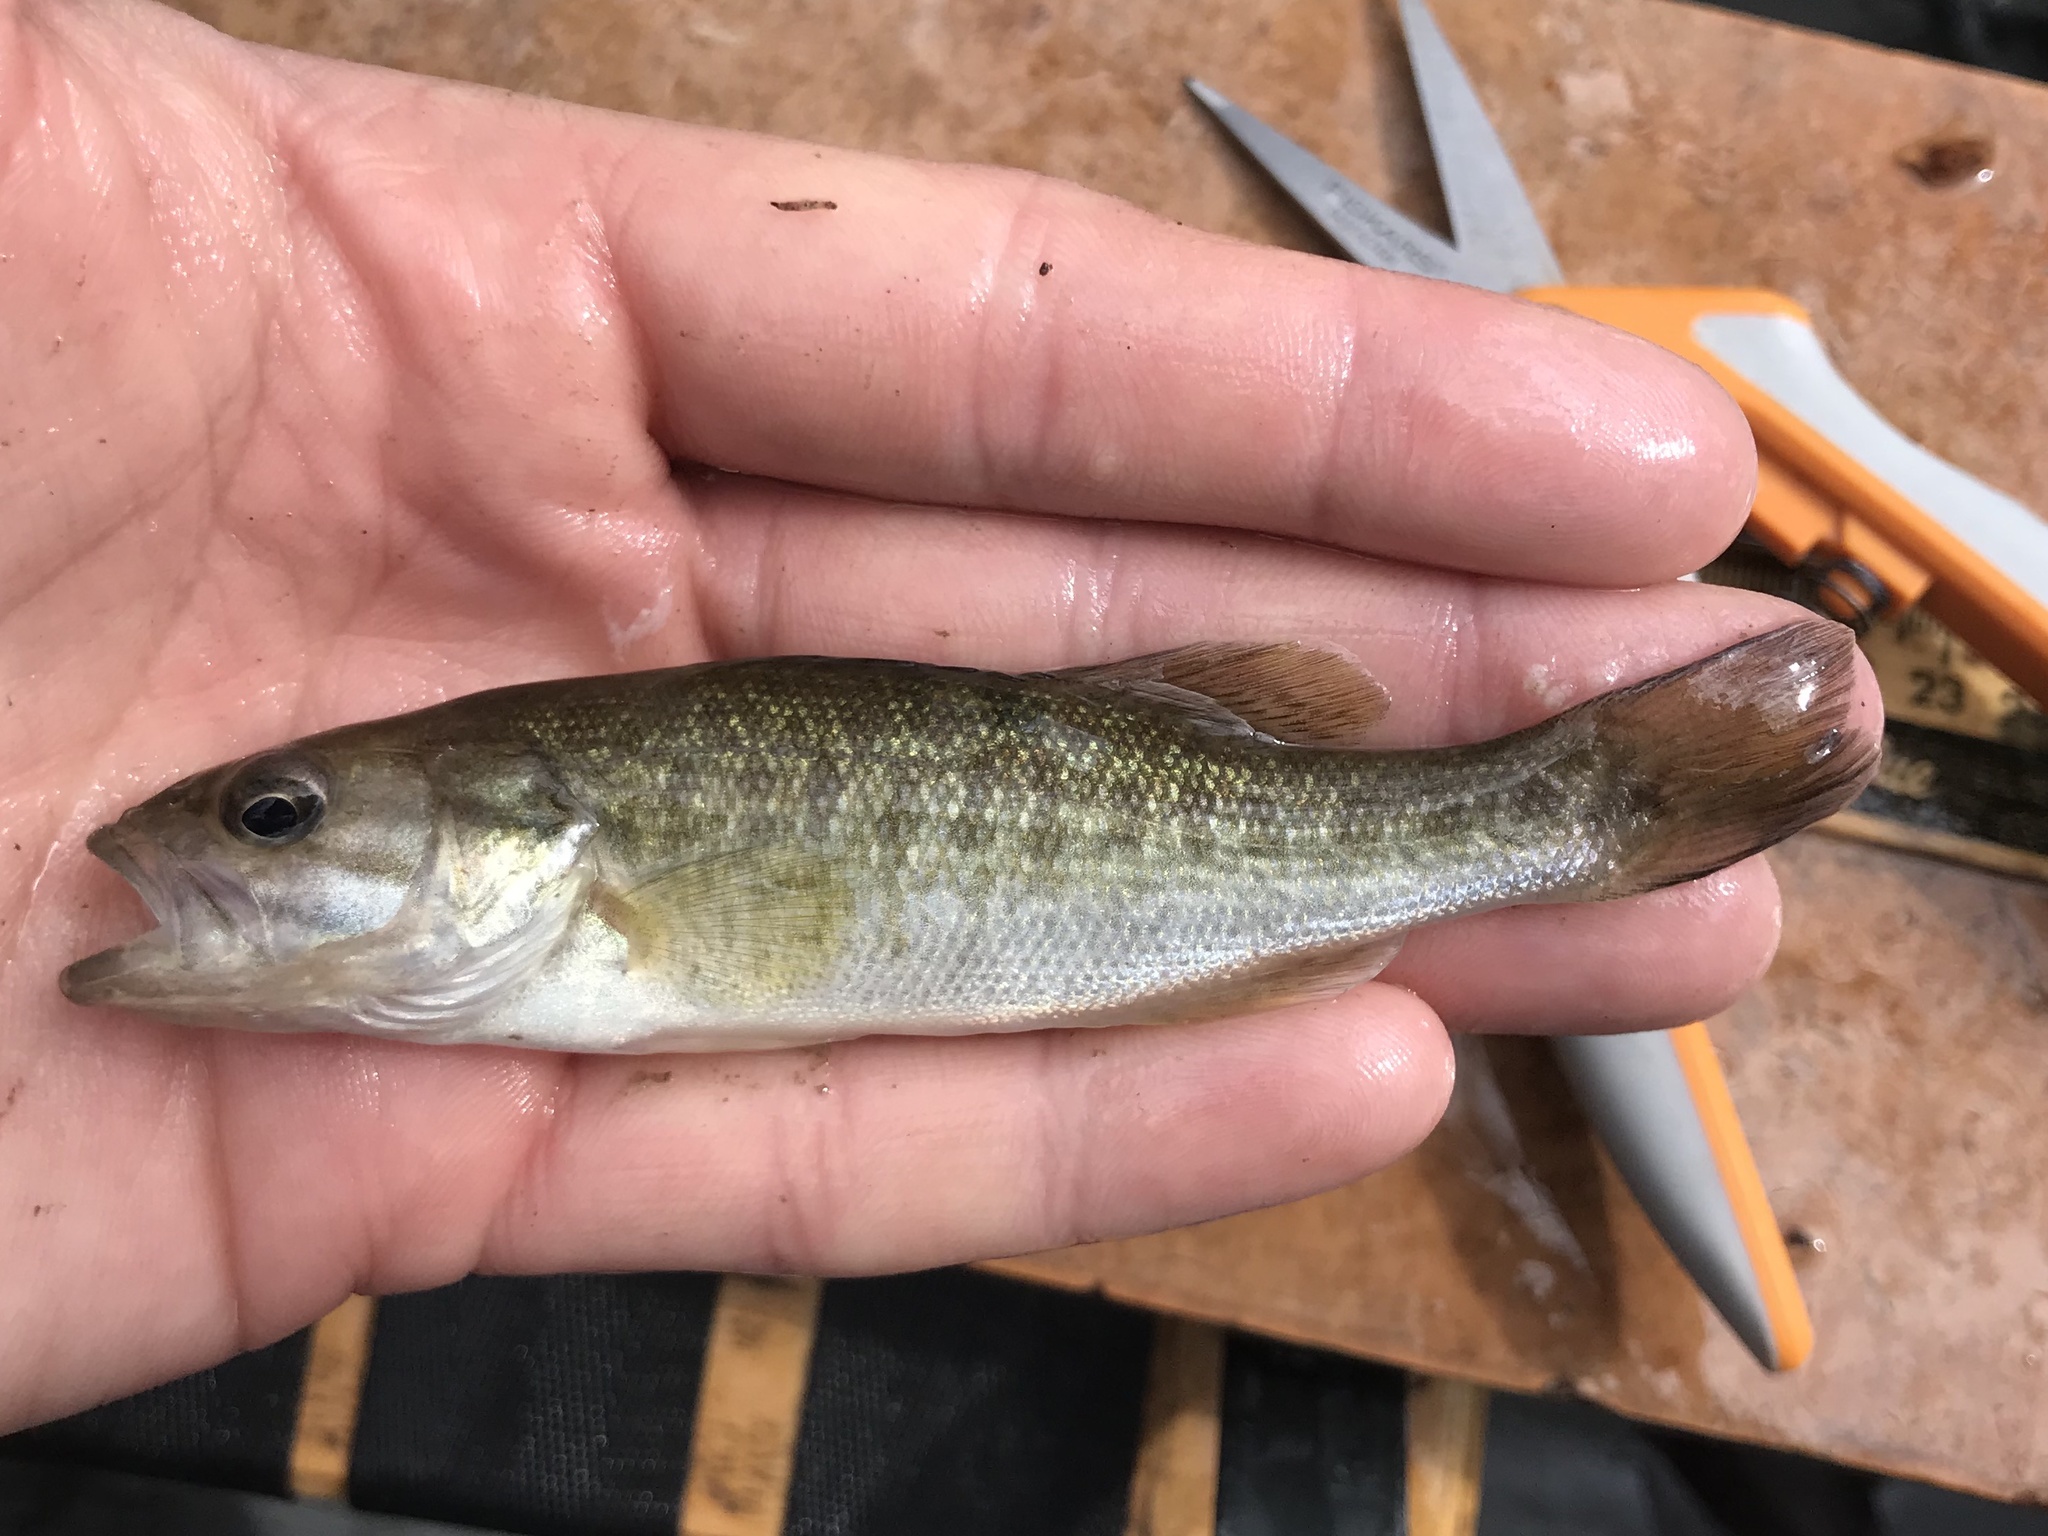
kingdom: Animalia
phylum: Chordata
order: Perciformes
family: Centrarchidae
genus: Micropterus
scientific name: Micropterus treculii
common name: Guadalupe bass
